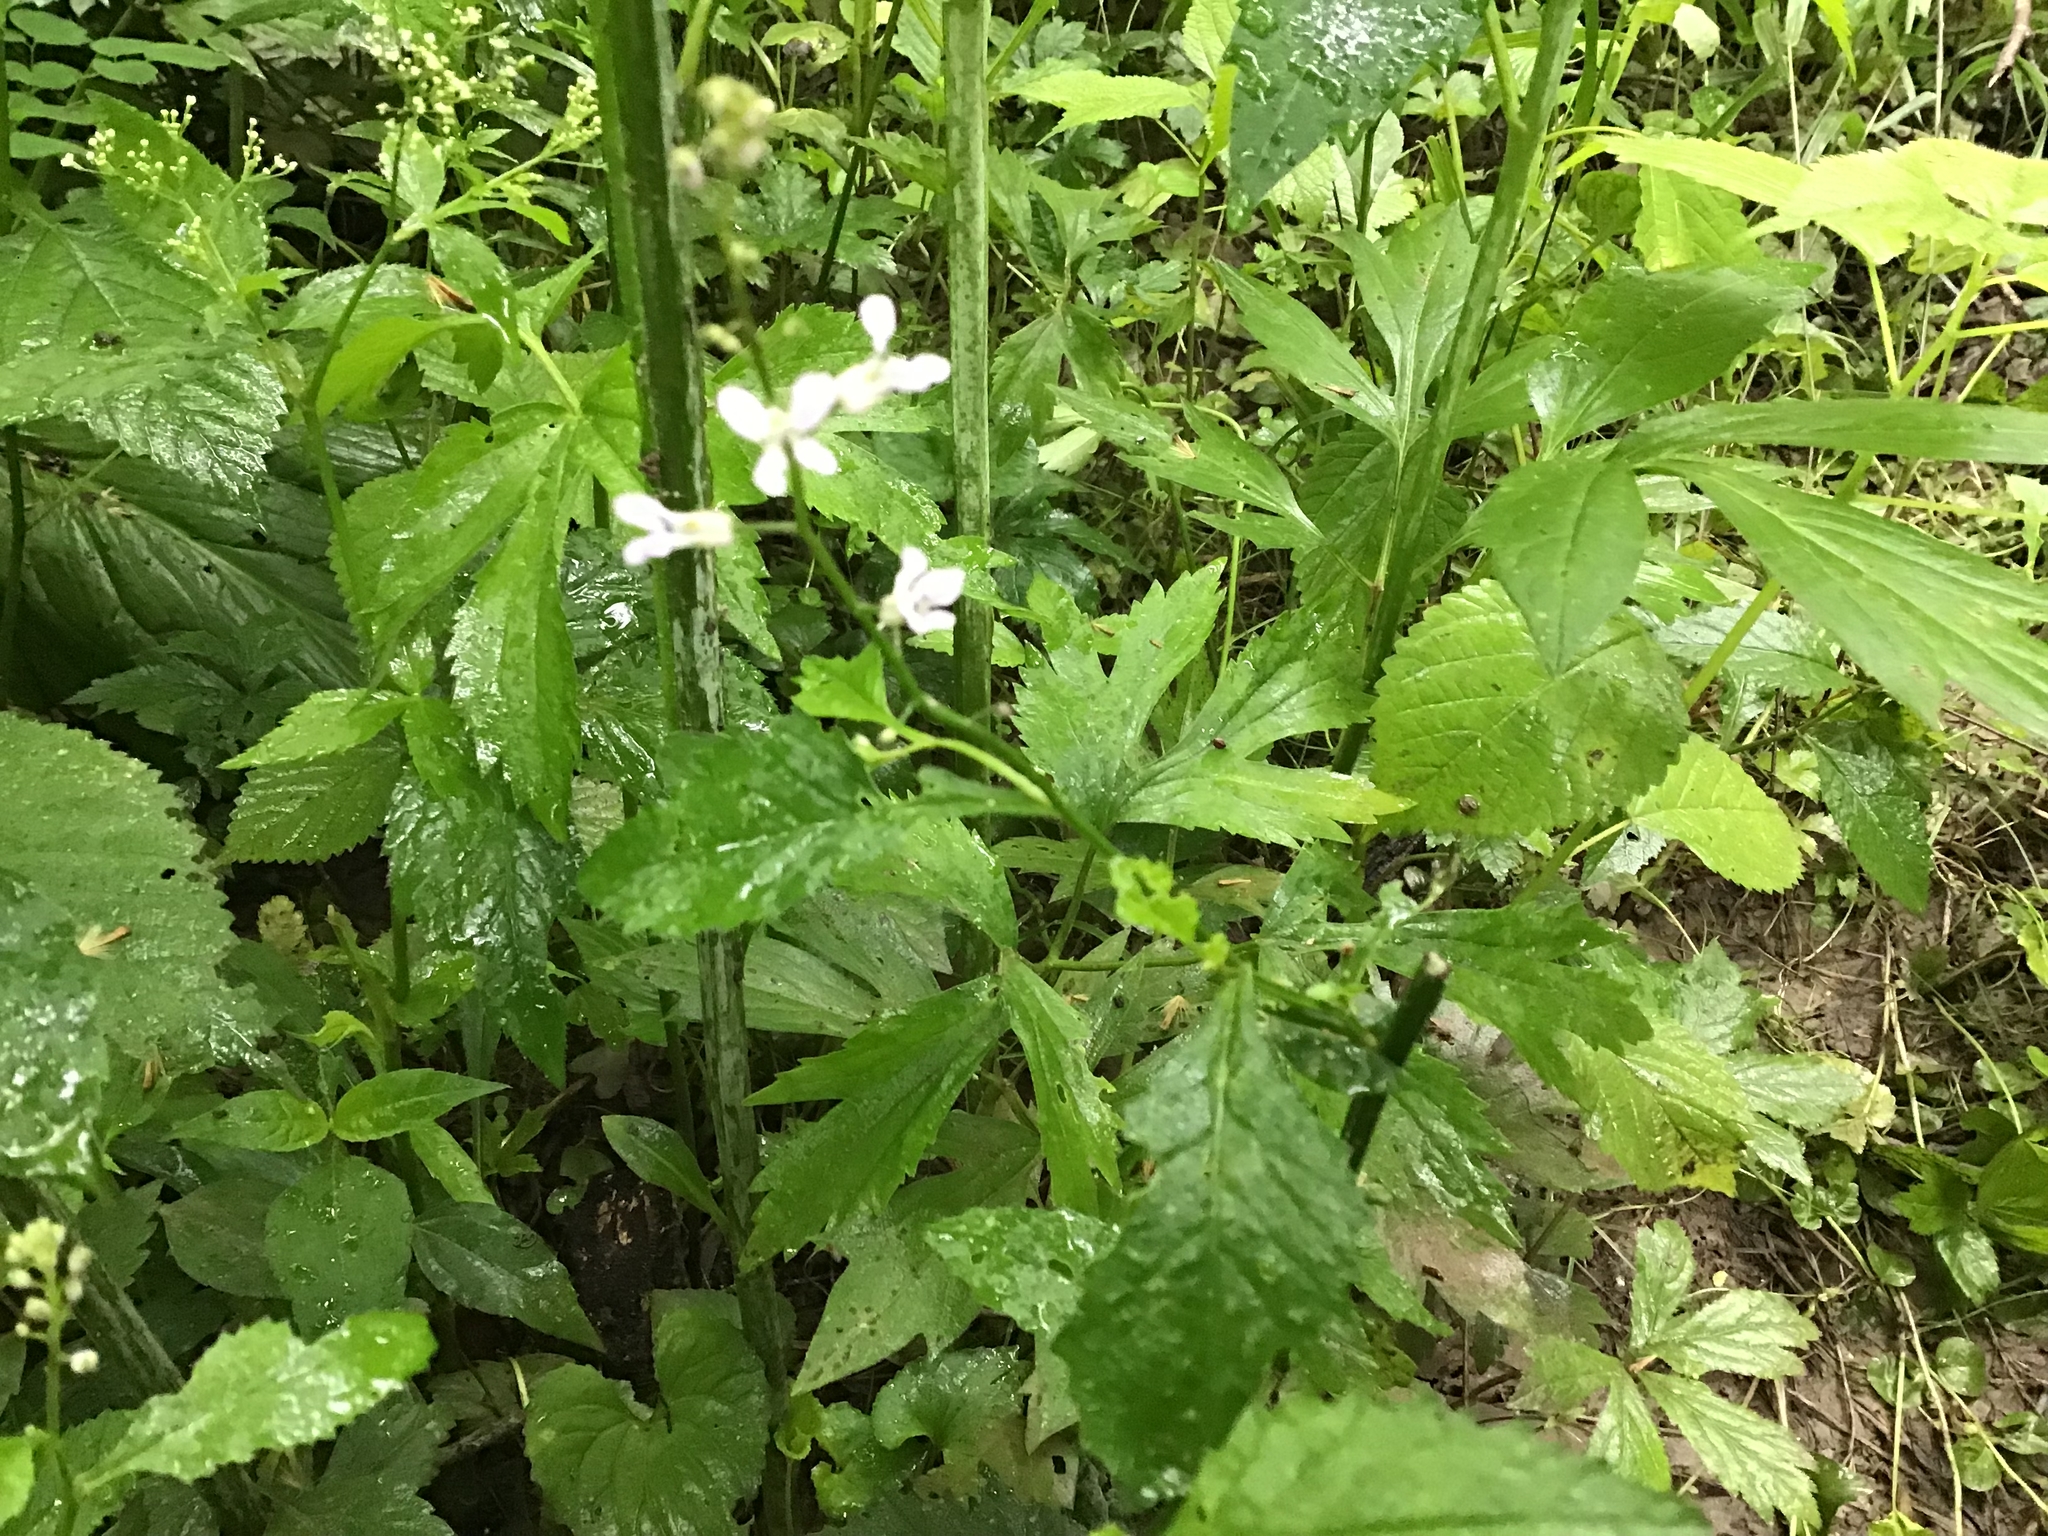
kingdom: Plantae
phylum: Tracheophyta
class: Magnoliopsida
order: Brassicales
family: Brassicaceae
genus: Iodanthus
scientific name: Iodanthus pinnatifidus
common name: Violet rocket
